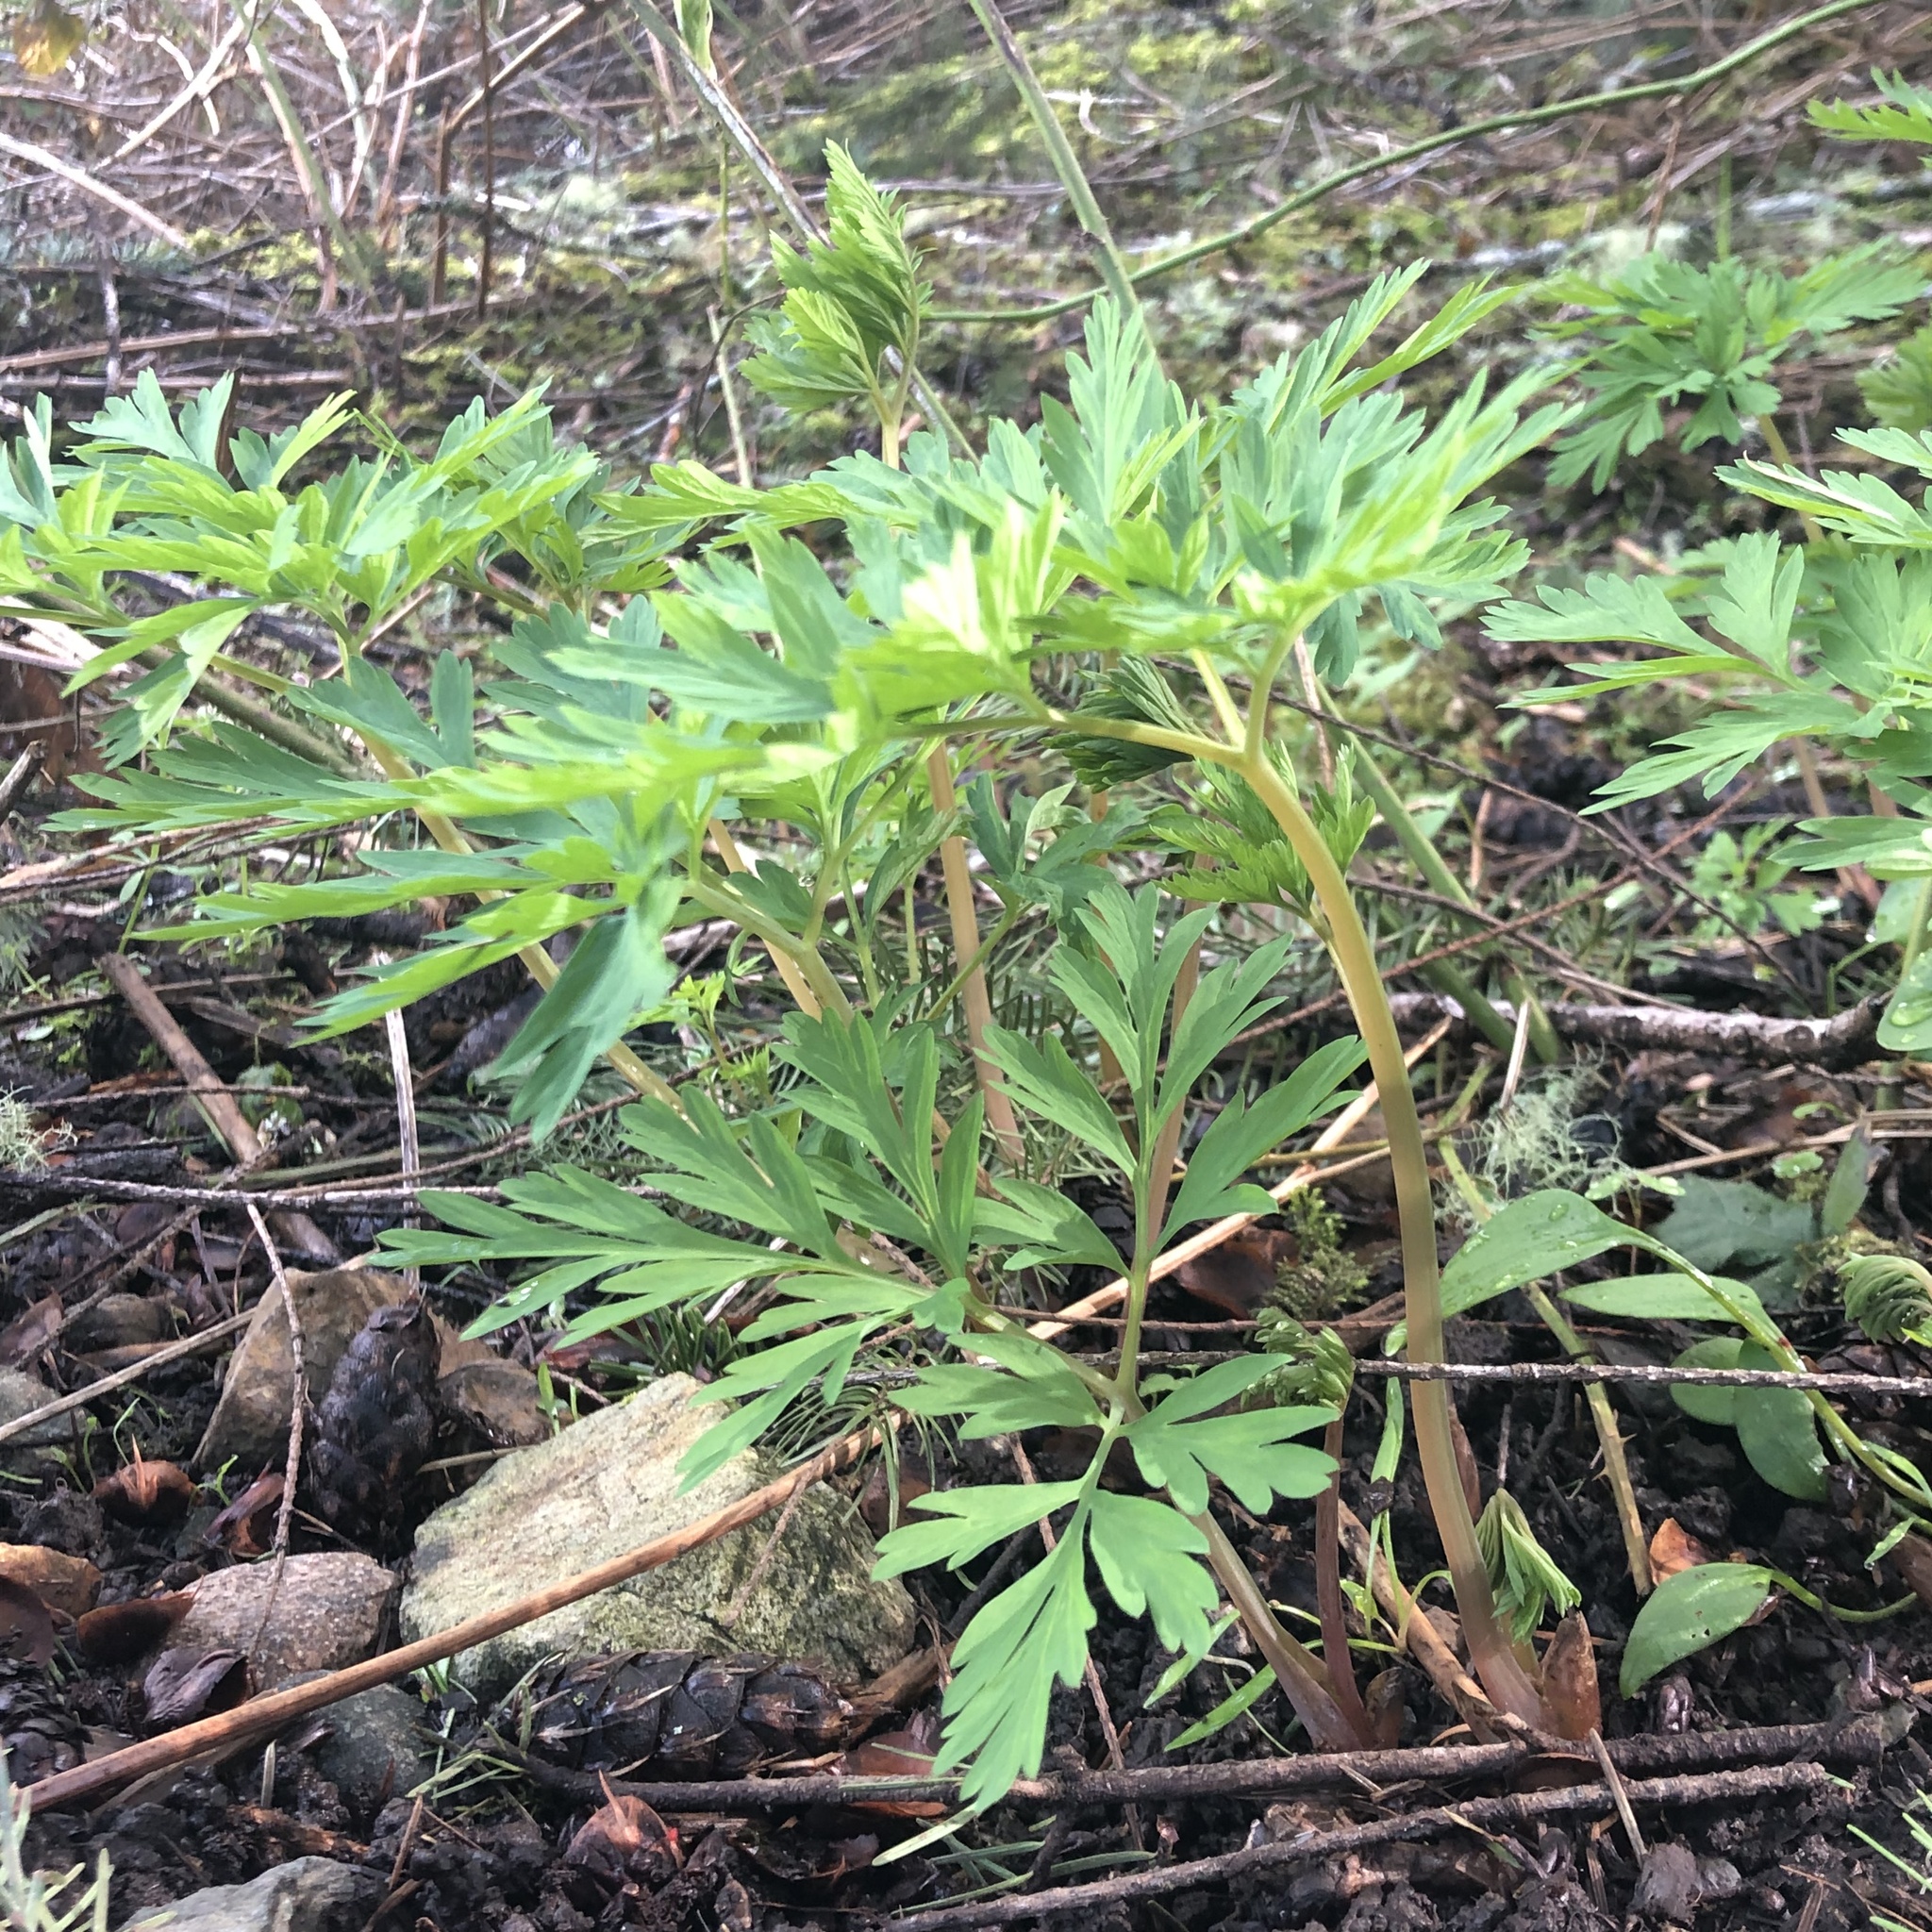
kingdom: Plantae
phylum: Tracheophyta
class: Magnoliopsida
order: Ranunculales
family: Papaveraceae
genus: Dicentra
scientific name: Dicentra formosa
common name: Bleeding-heart
